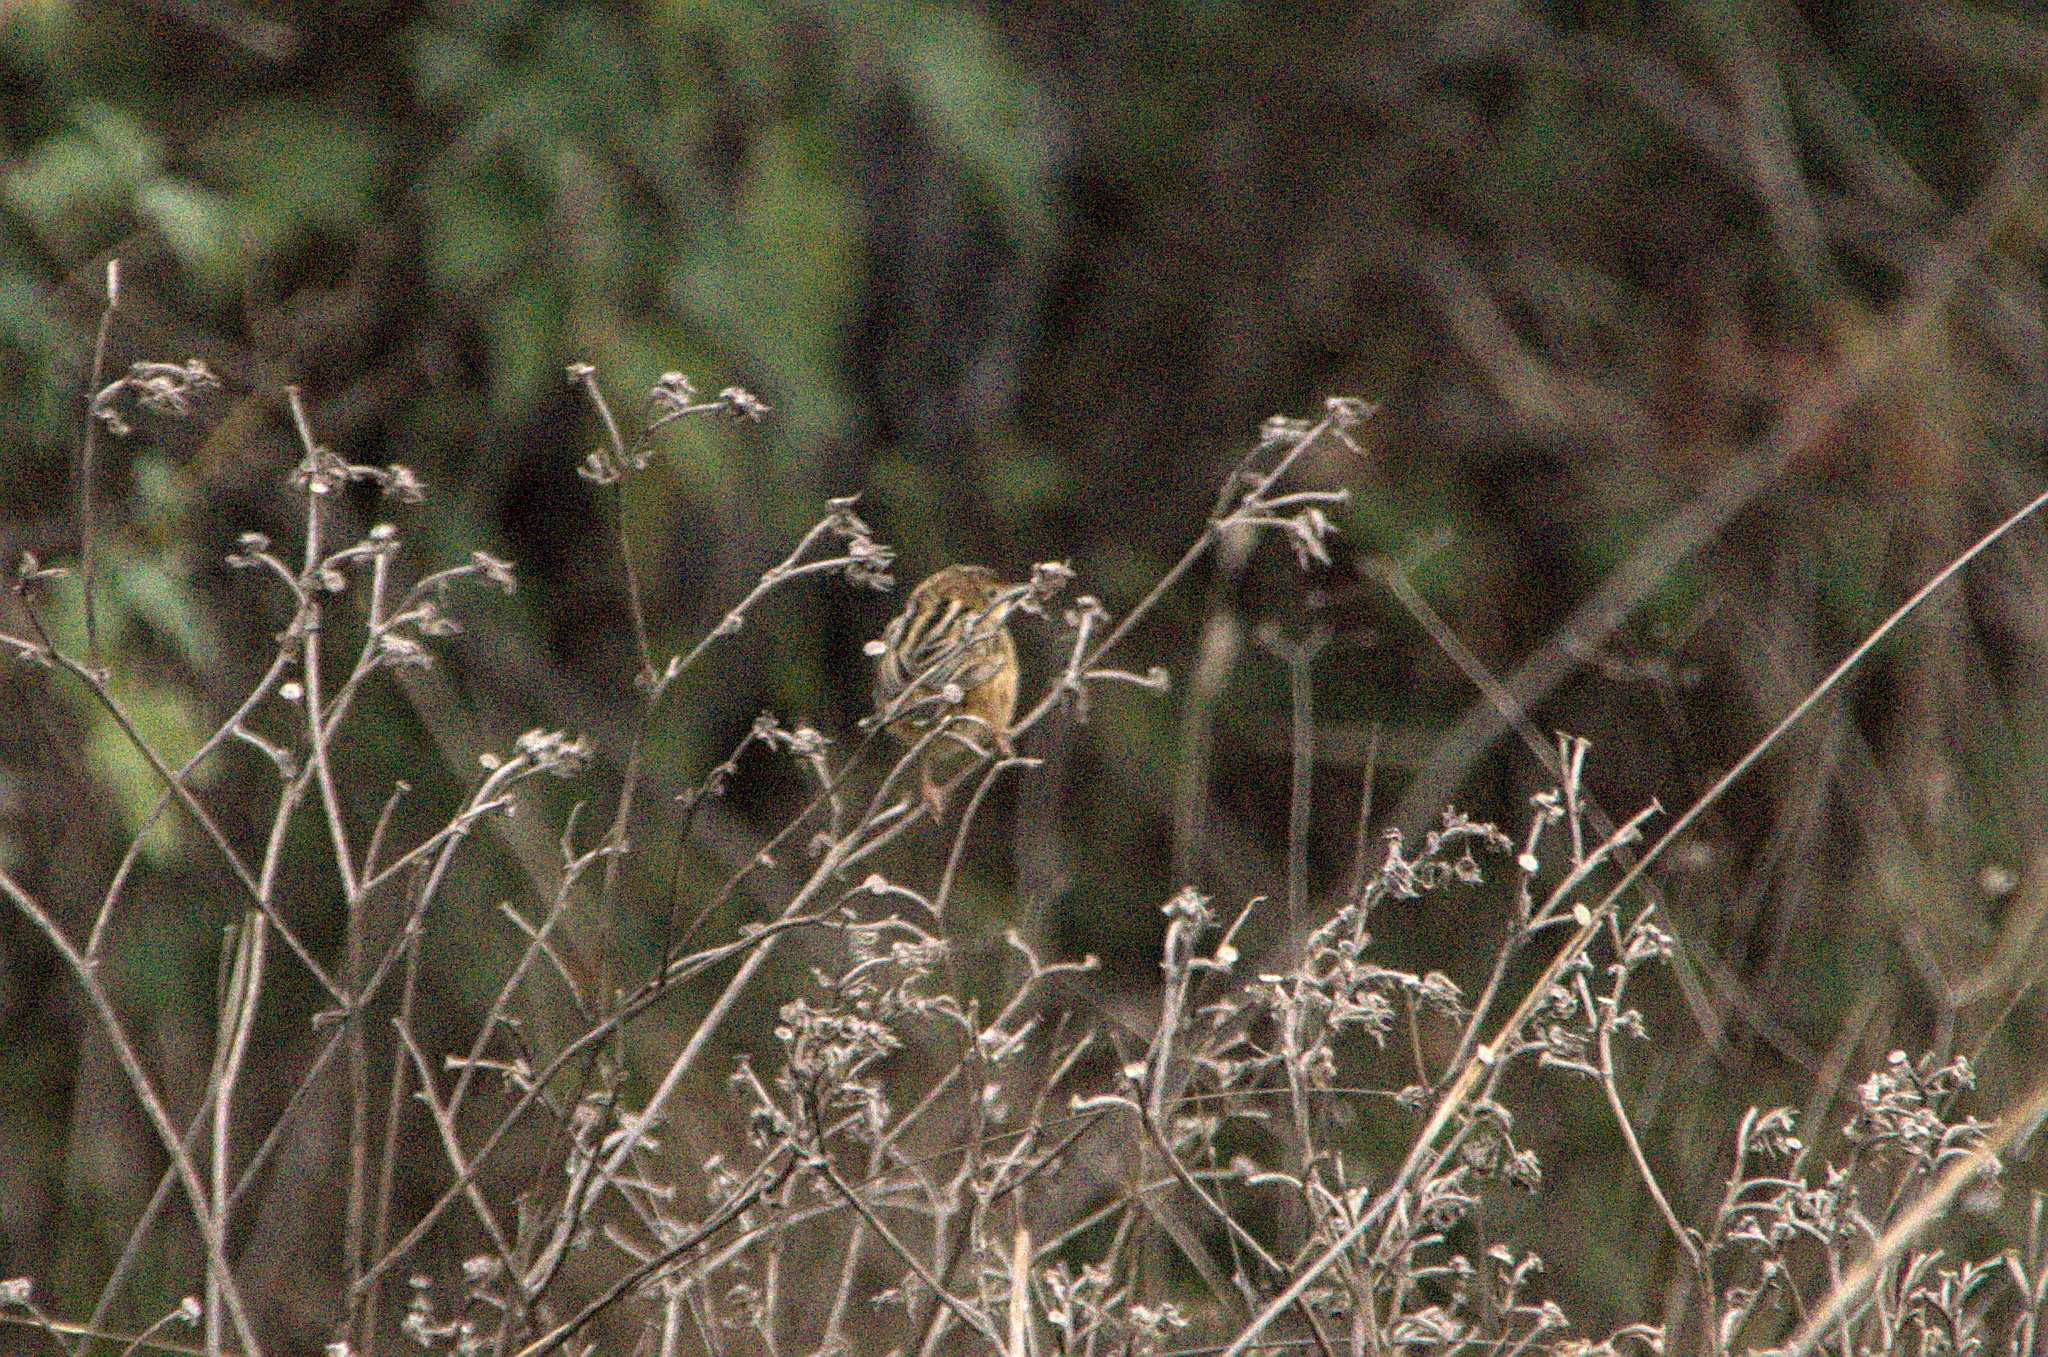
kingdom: Animalia
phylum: Chordata
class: Aves
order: Passeriformes
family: Cisticolidae
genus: Cisticola
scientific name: Cisticola juncidis
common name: Zitting cisticola
